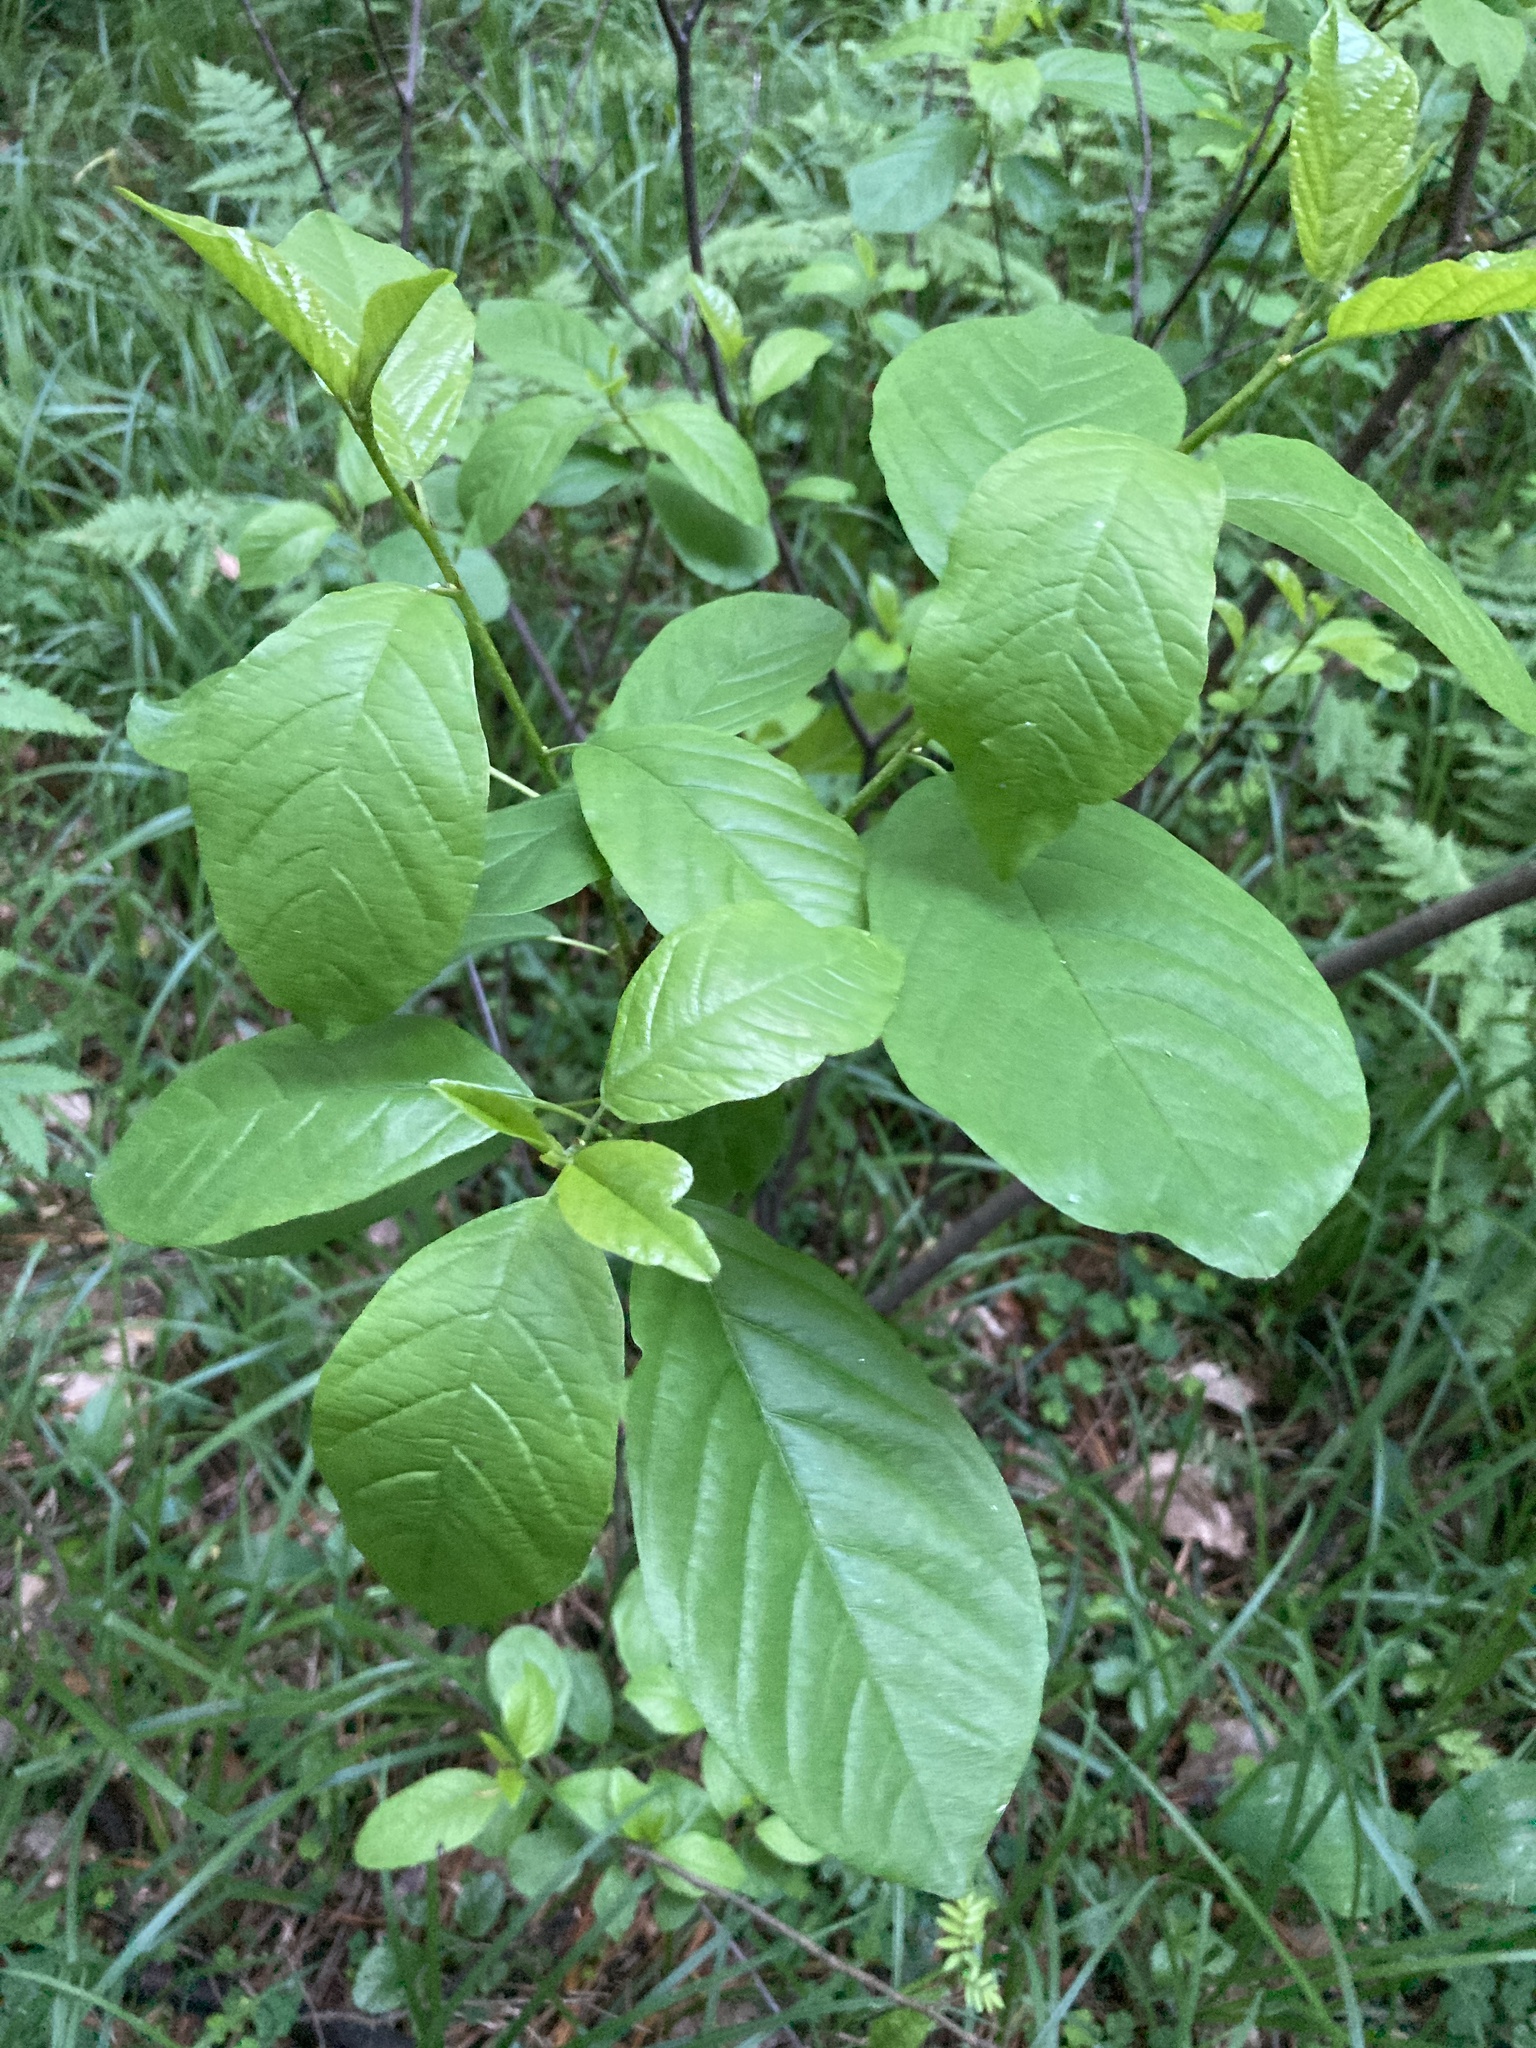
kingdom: Plantae
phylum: Tracheophyta
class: Magnoliopsida
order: Rosales
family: Rhamnaceae
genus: Frangula
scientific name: Frangula alnus
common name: Alder buckthorn
